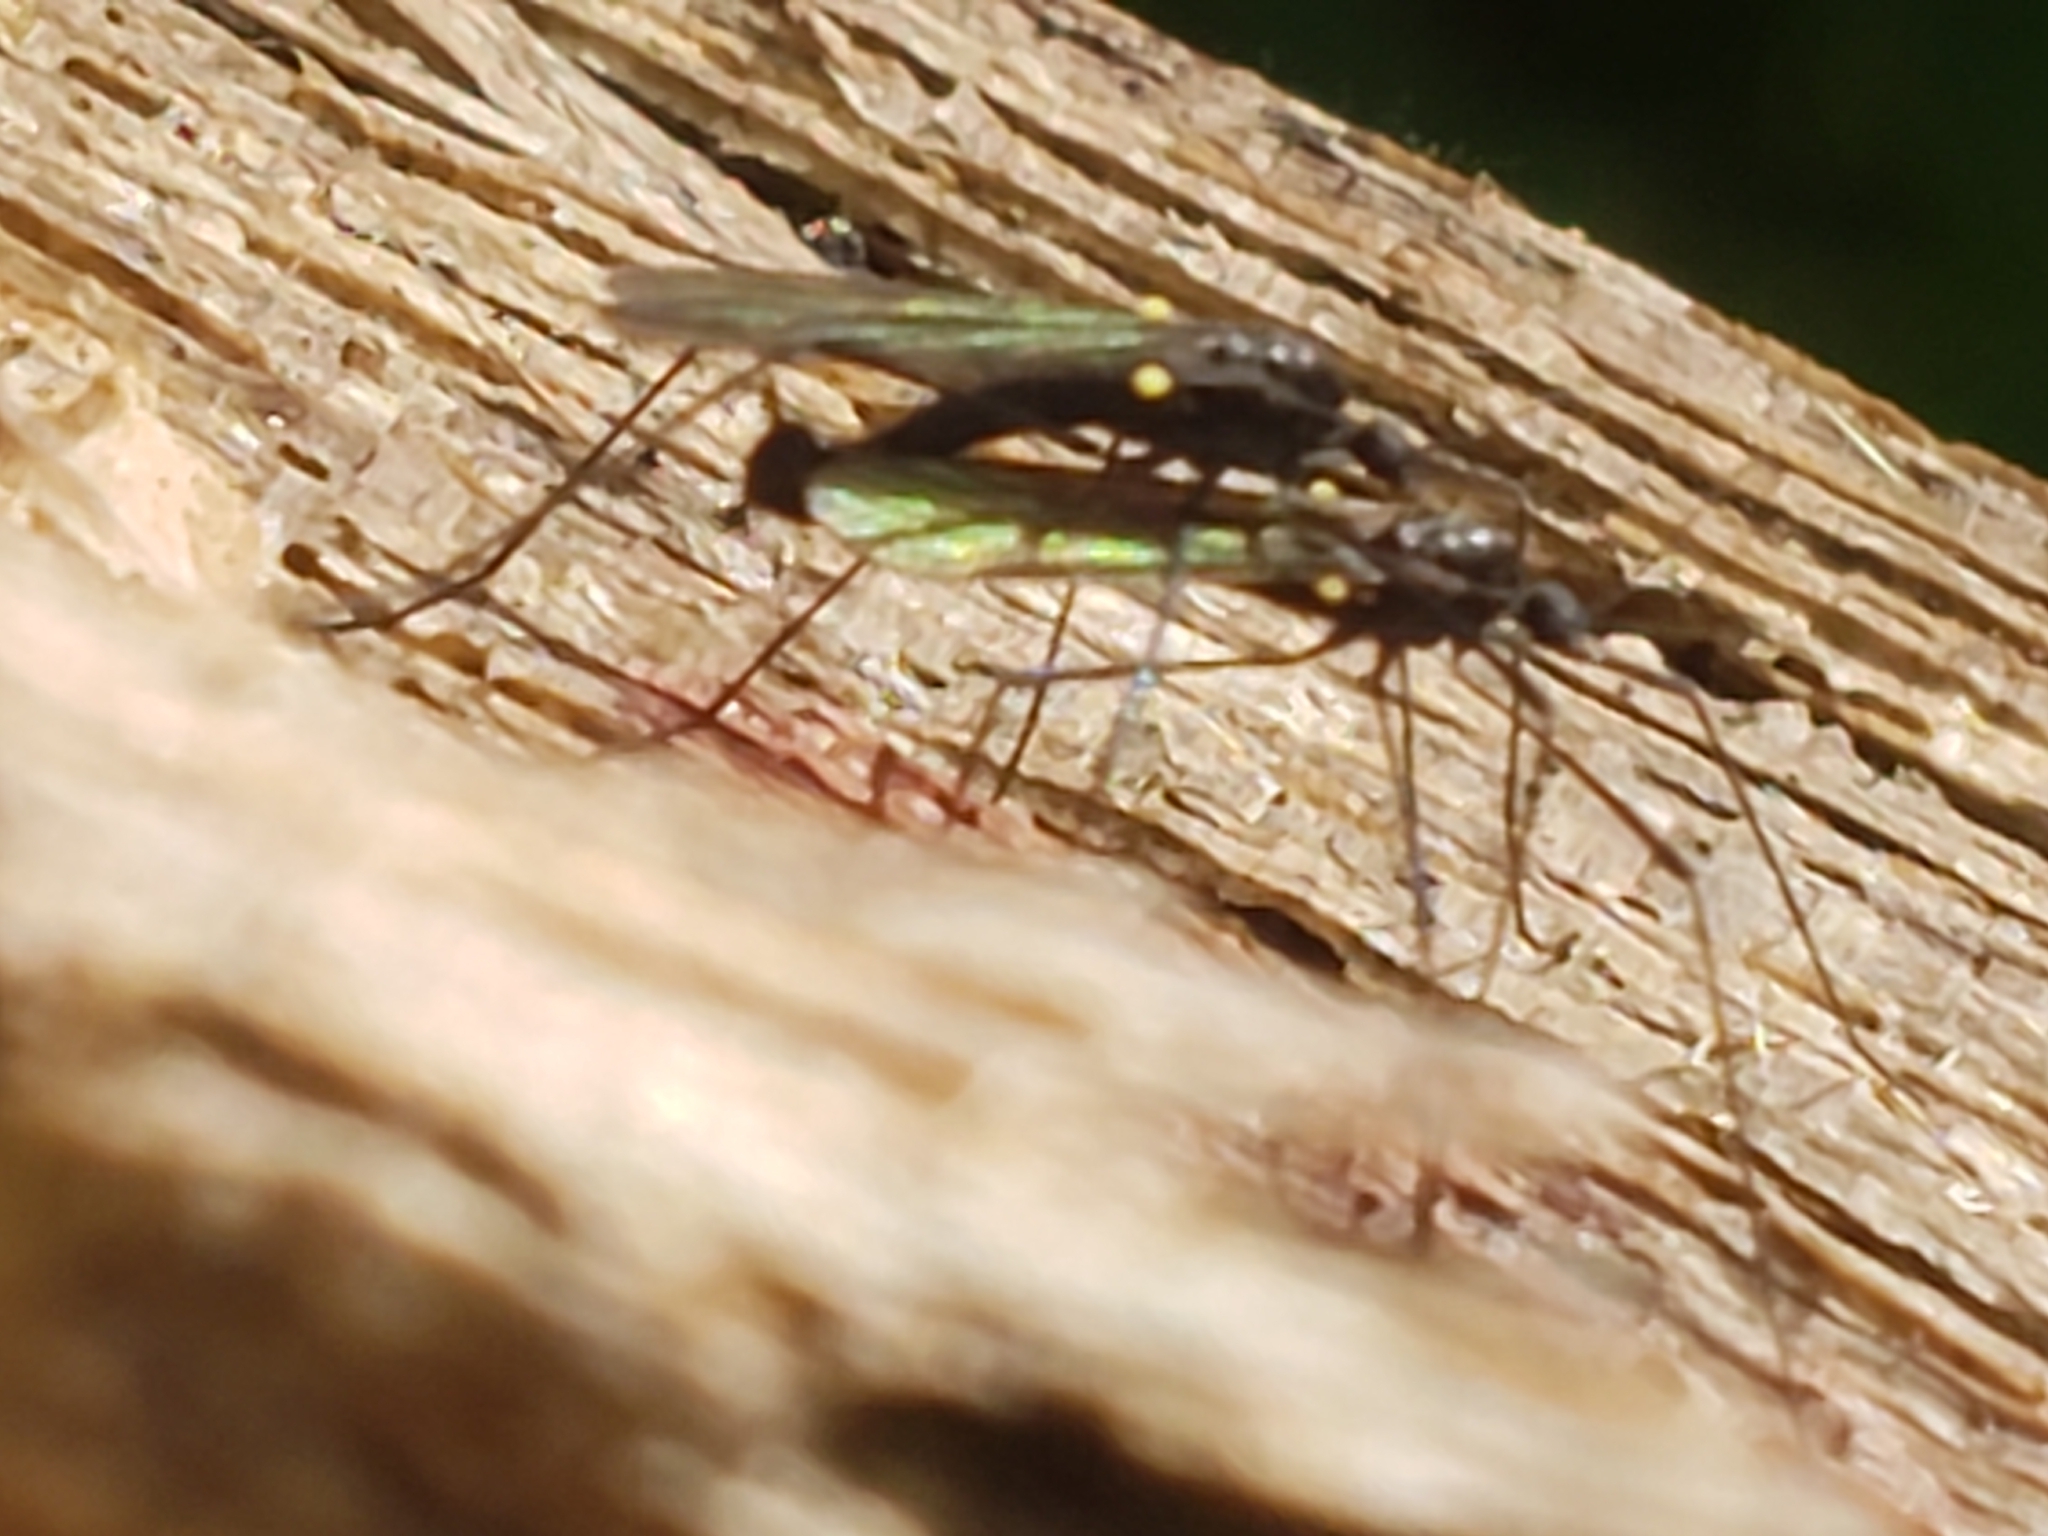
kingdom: Animalia
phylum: Arthropoda
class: Insecta
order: Diptera
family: Limoniidae
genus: Gnophomyia
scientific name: Gnophomyia tristissima
